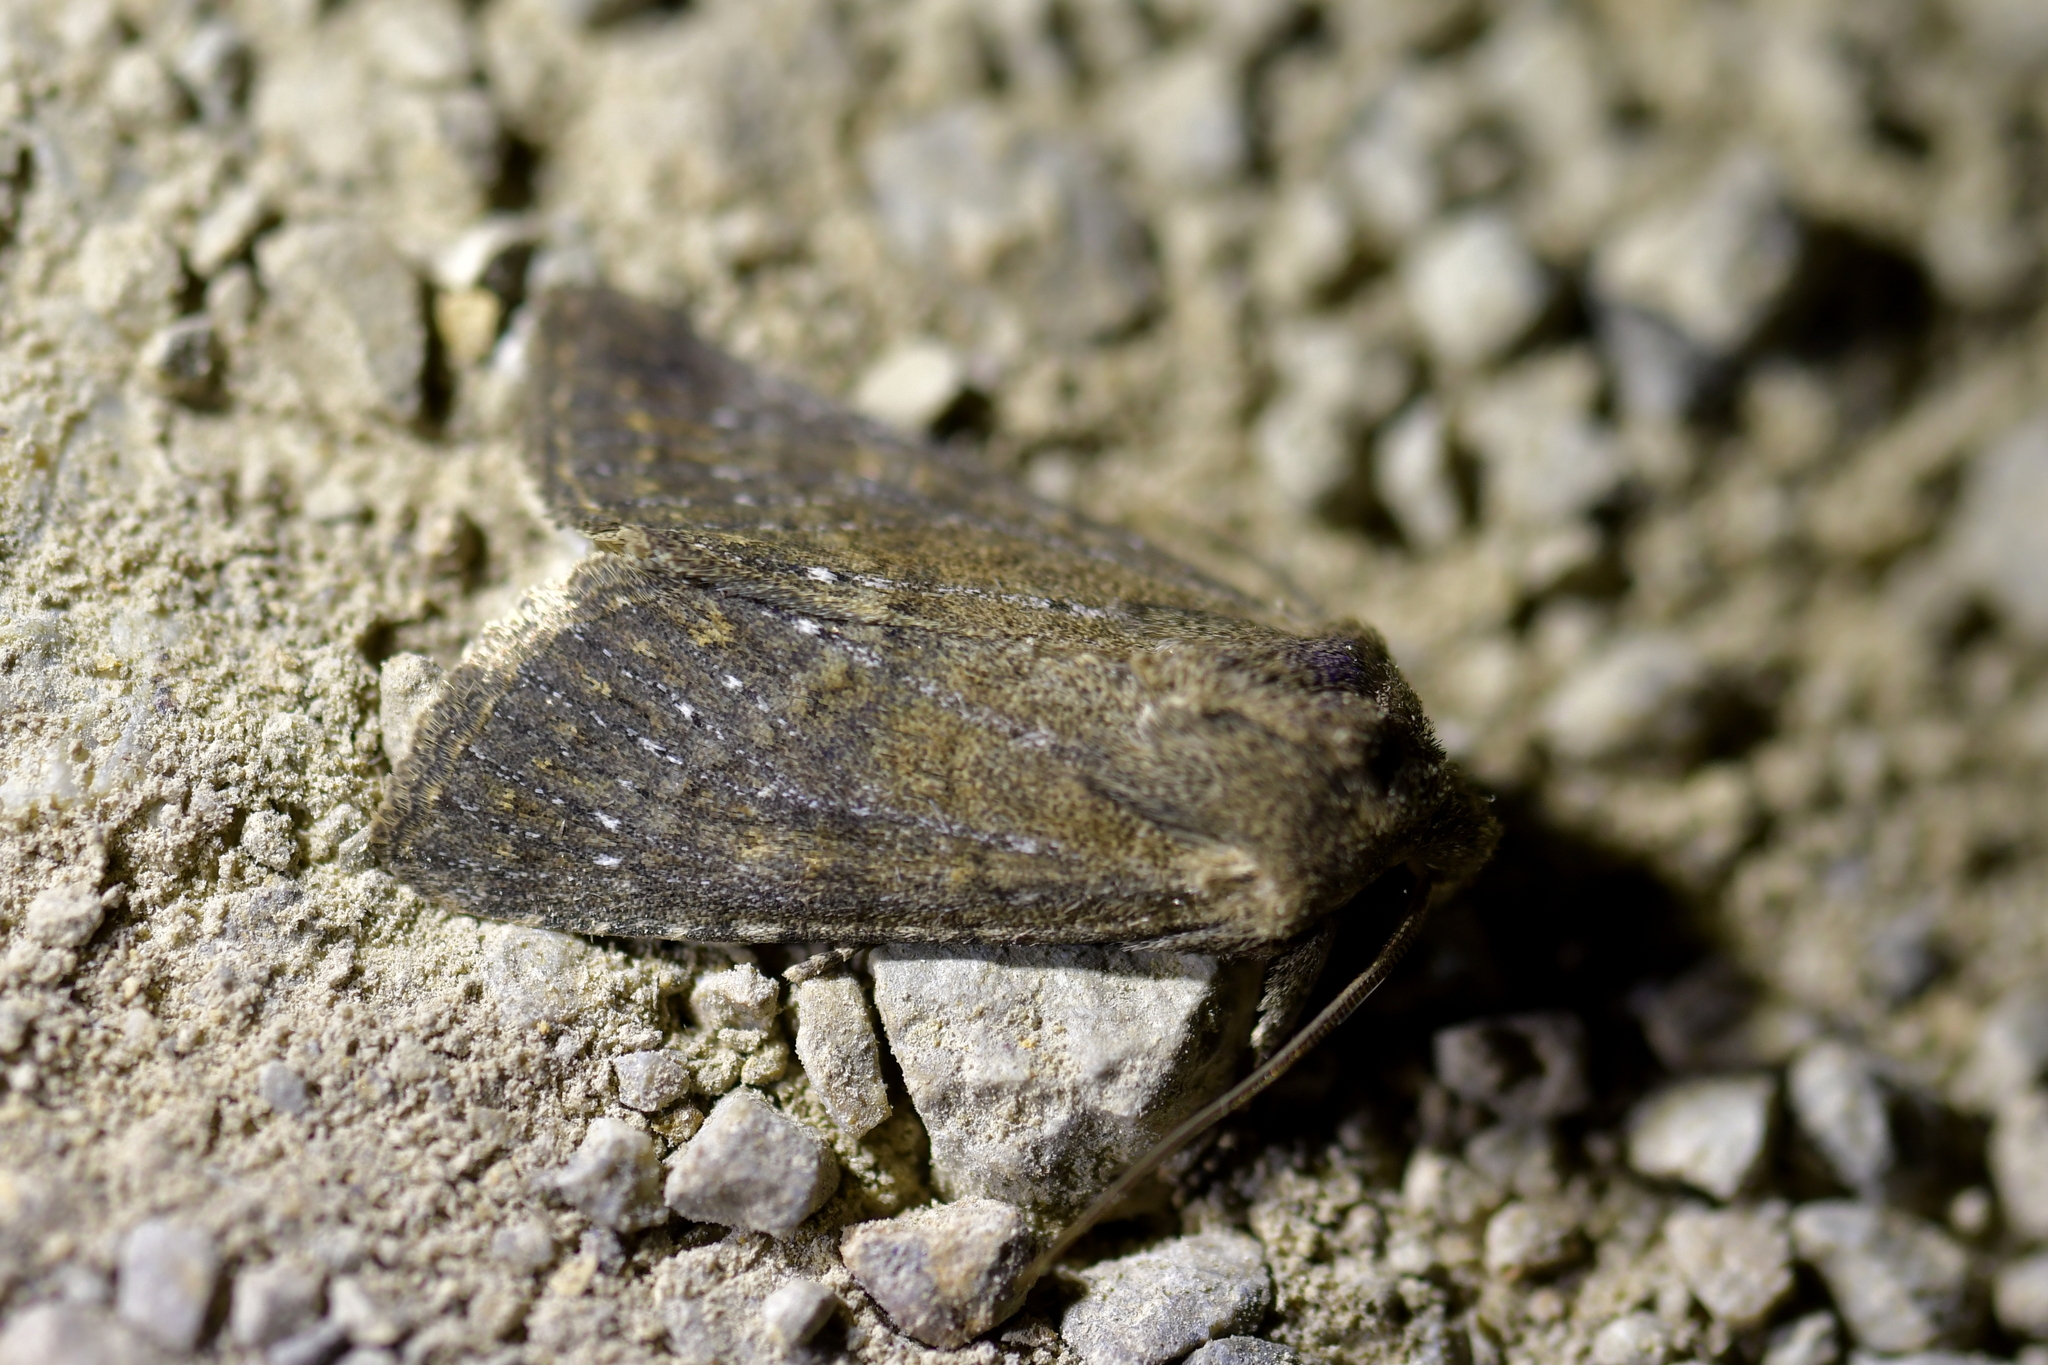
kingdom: Animalia
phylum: Arthropoda
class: Insecta
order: Lepidoptera
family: Noctuidae
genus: Ichneutica
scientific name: Ichneutica
